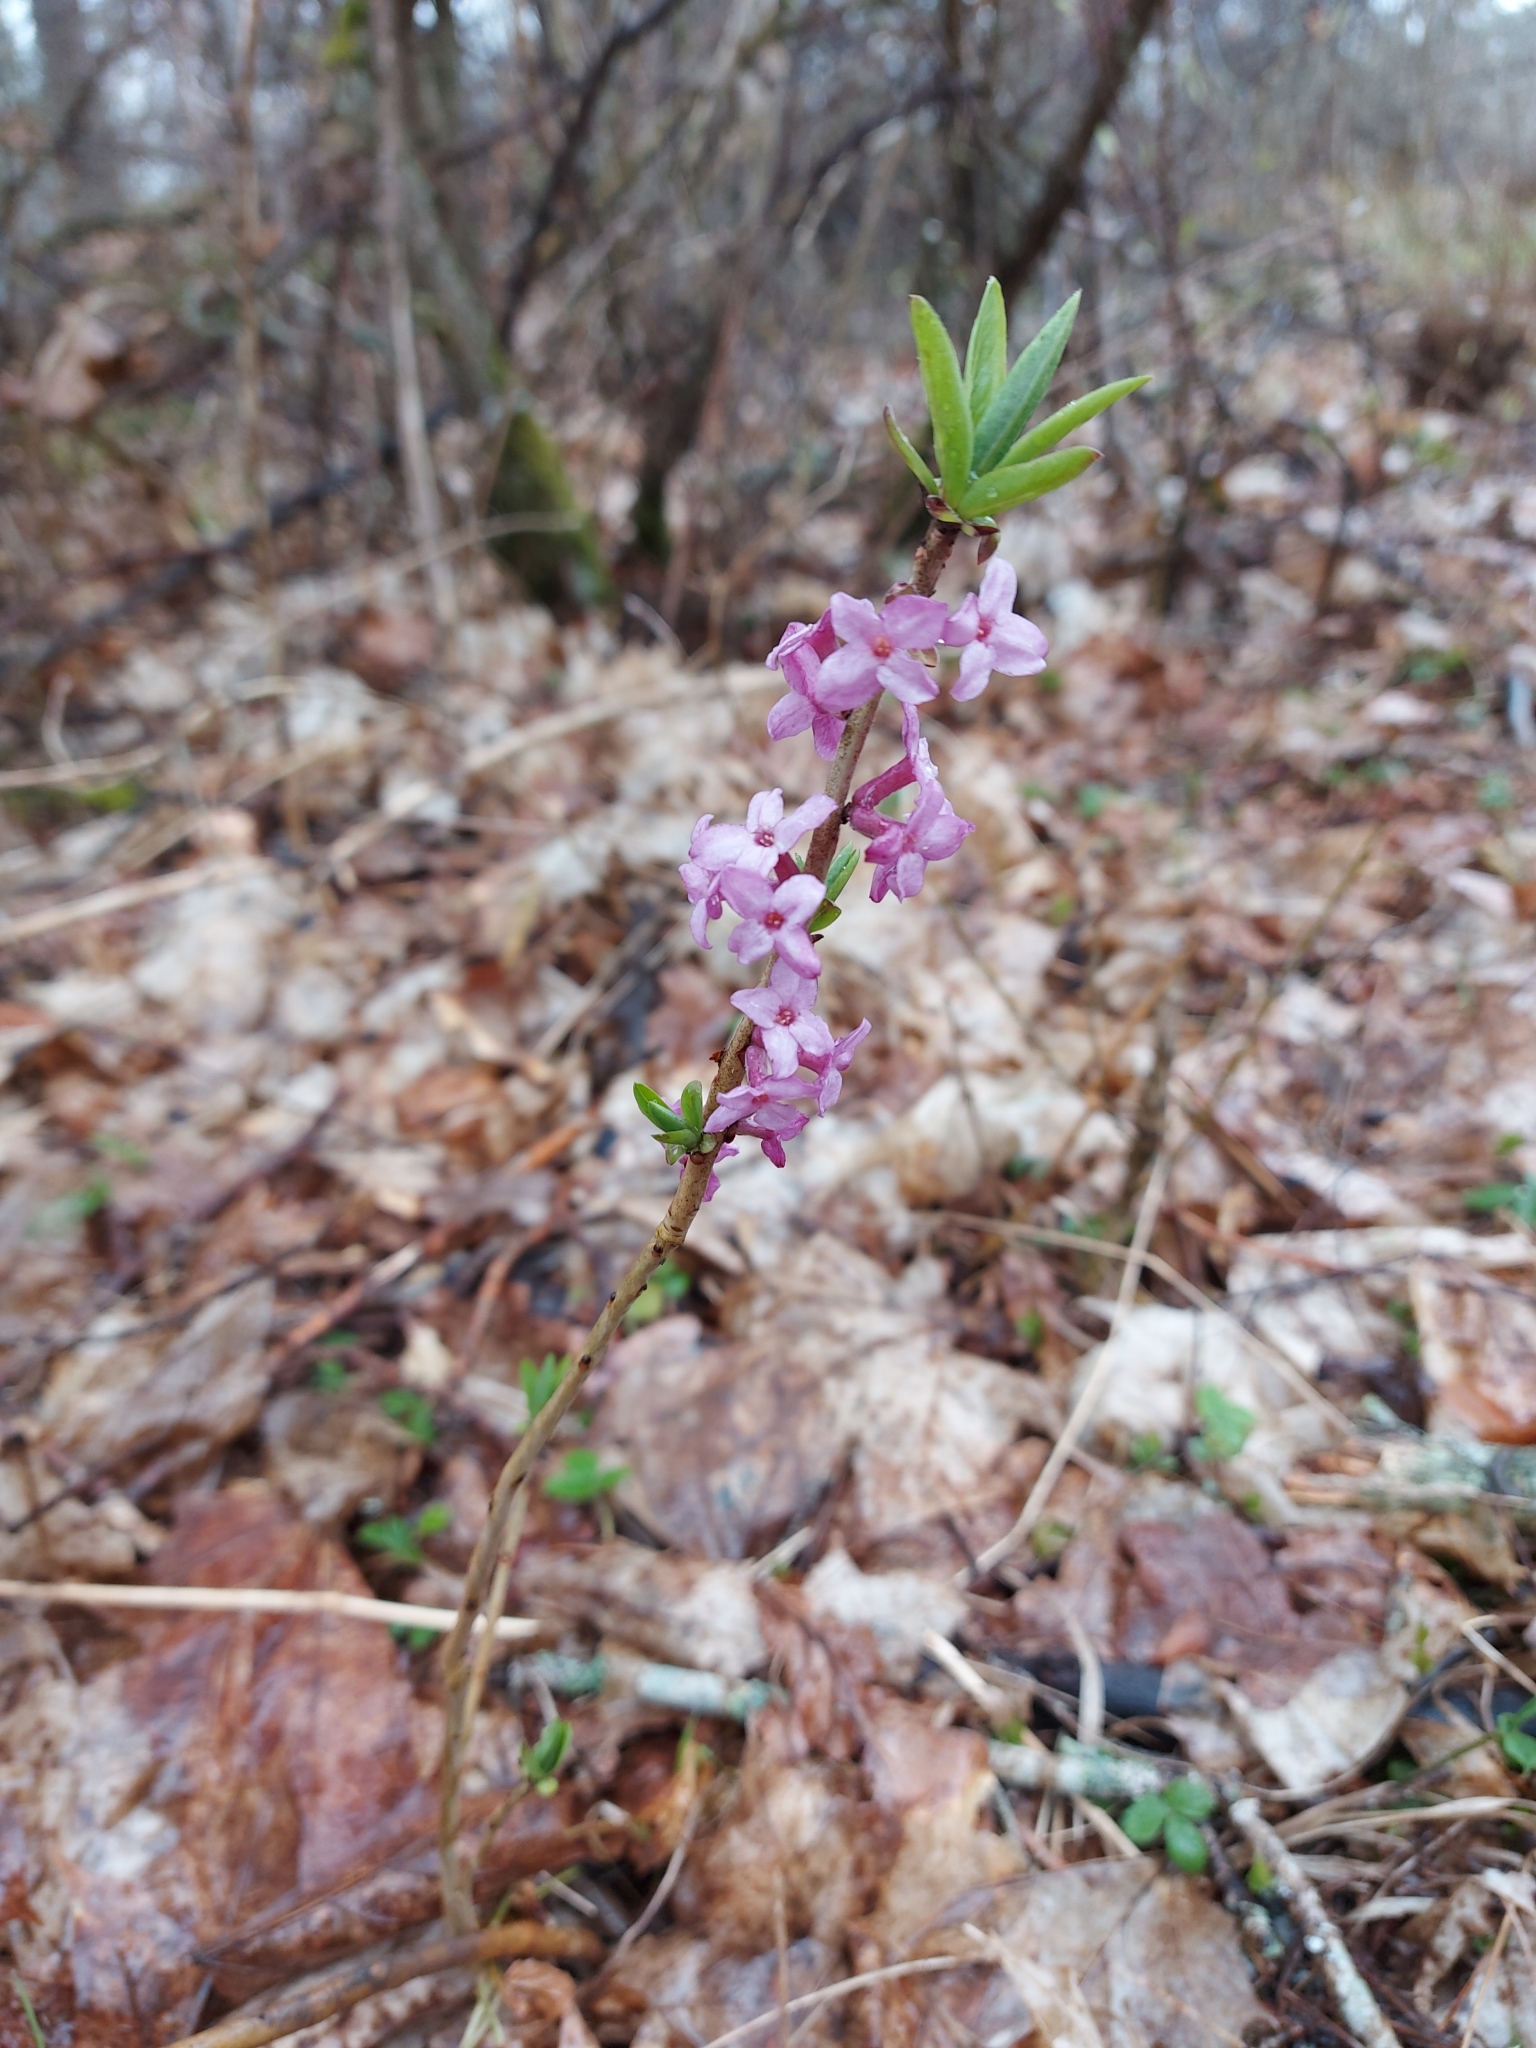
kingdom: Plantae
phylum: Tracheophyta
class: Magnoliopsida
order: Malvales
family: Thymelaeaceae
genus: Daphne
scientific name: Daphne mezereum
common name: Mezereon
